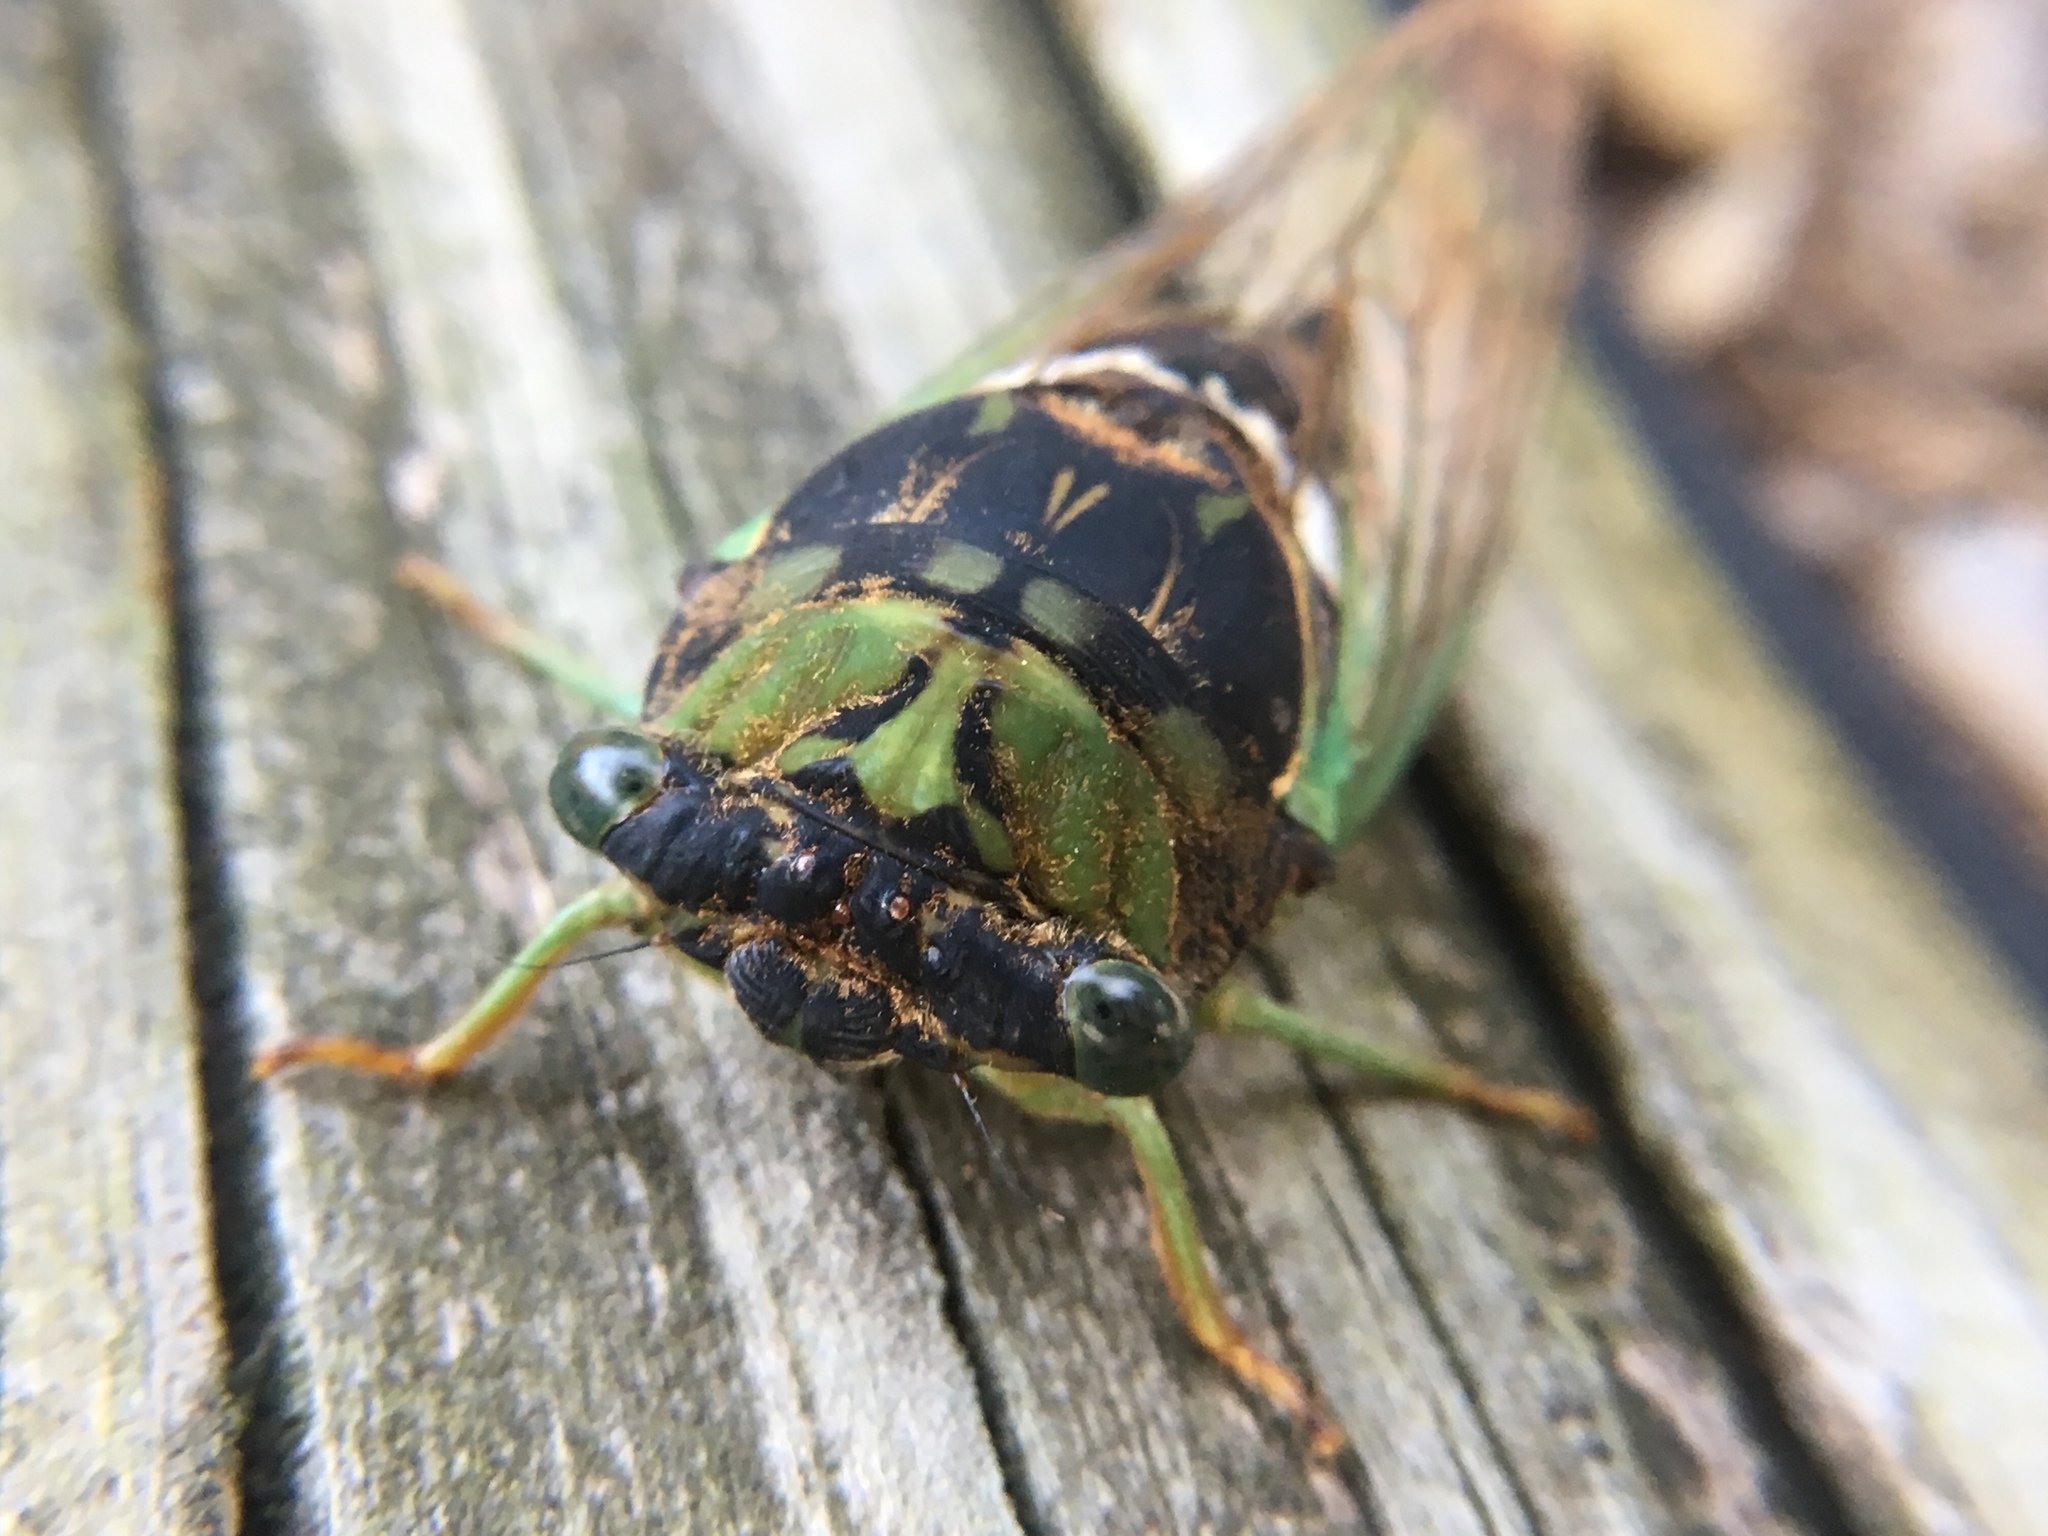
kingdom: Animalia
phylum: Arthropoda
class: Insecta
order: Hemiptera
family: Cicadidae
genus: Neotibicen
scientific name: Neotibicen tibicen
